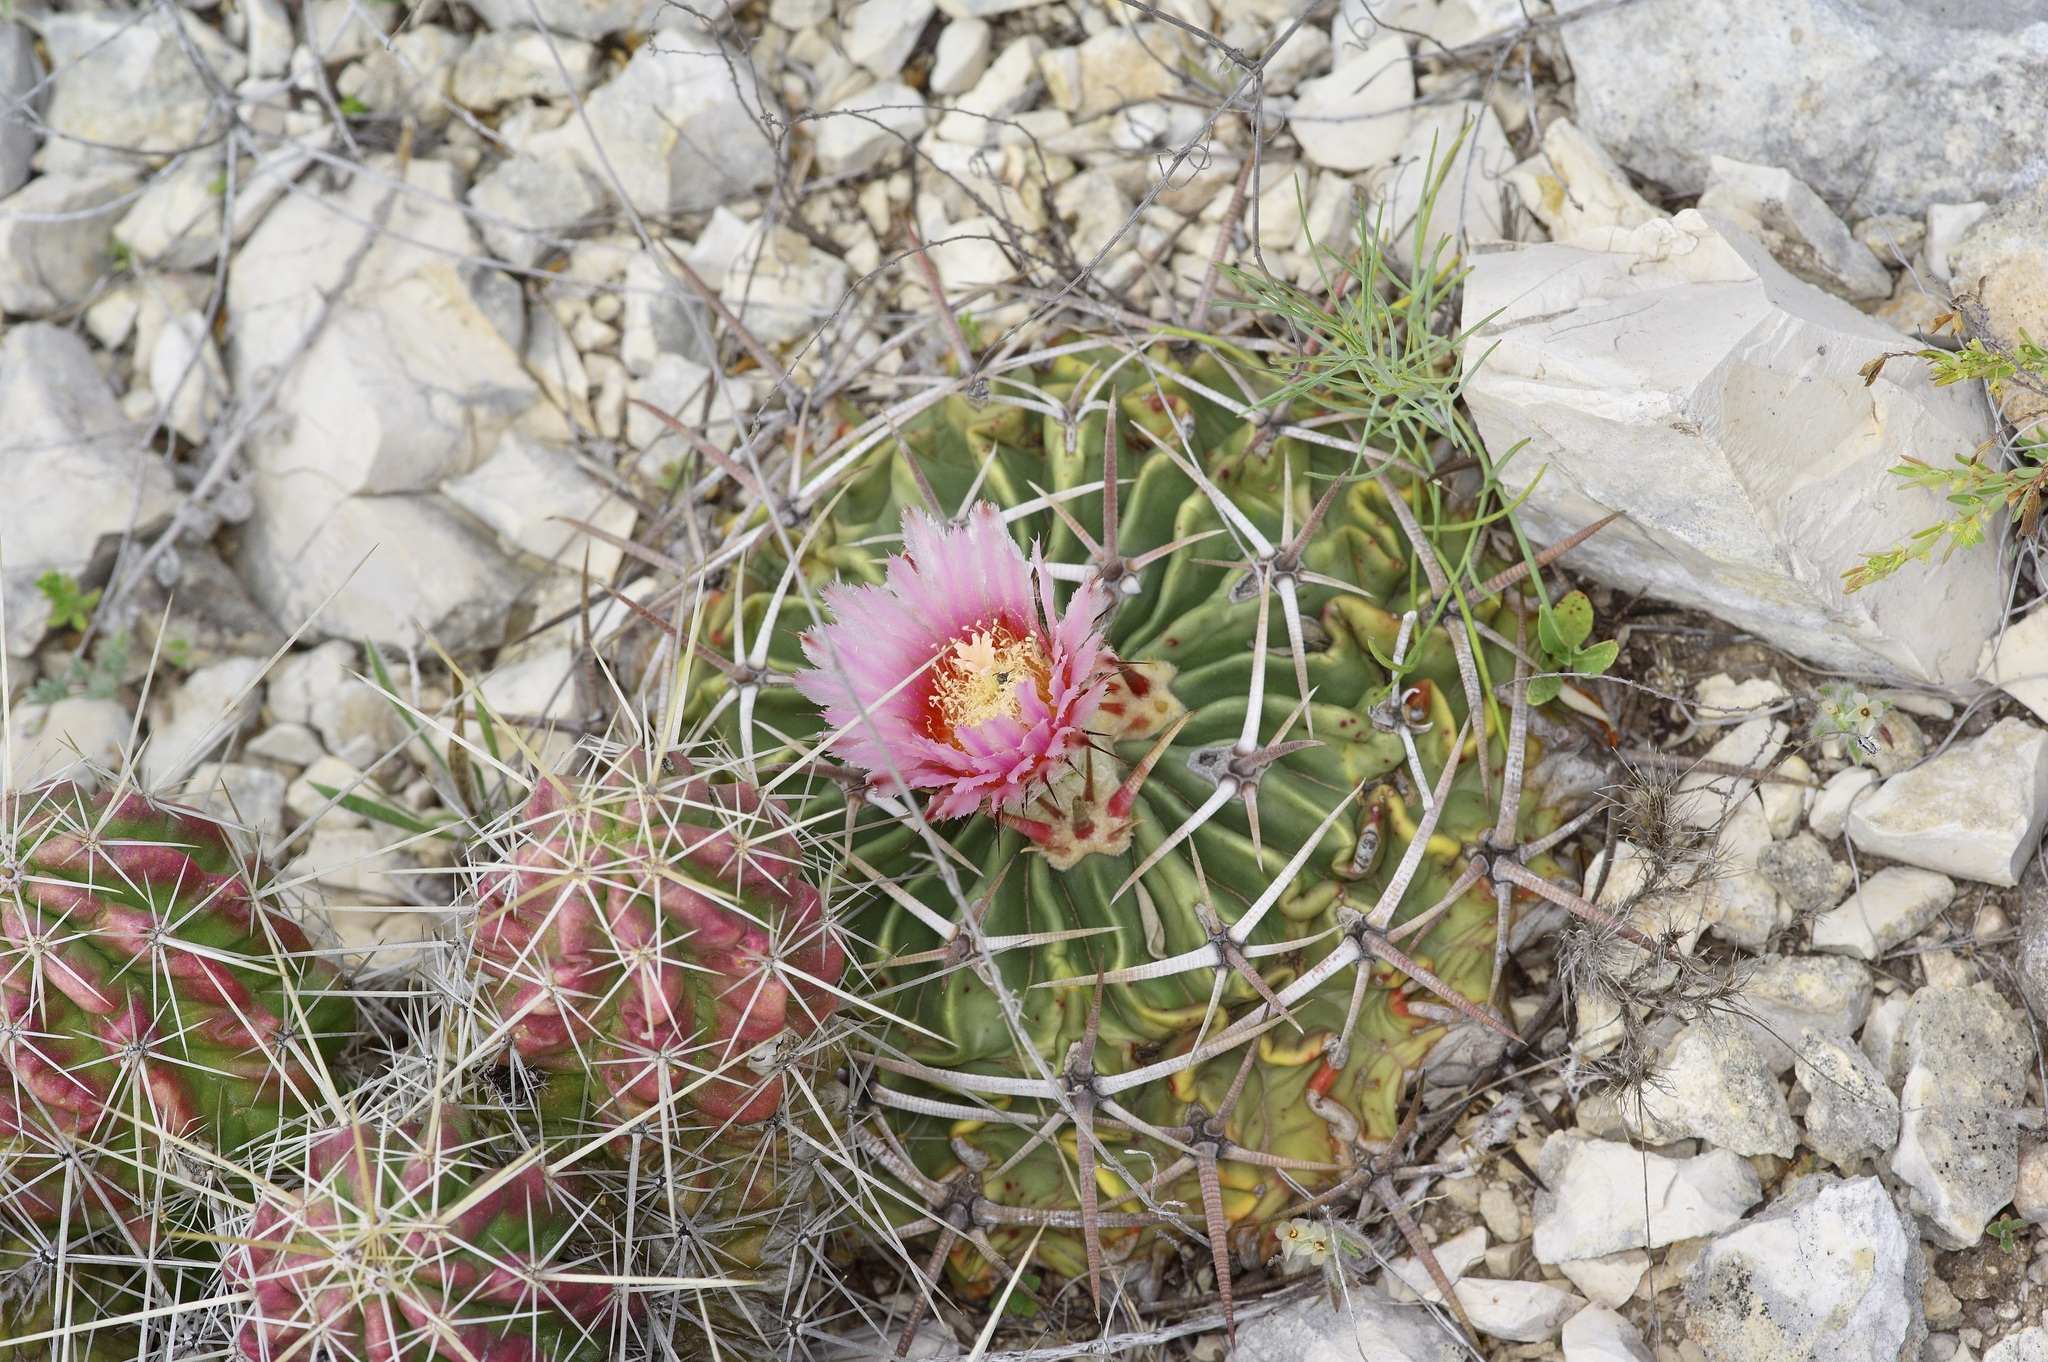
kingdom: Plantae
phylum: Tracheophyta
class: Magnoliopsida
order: Caryophyllales
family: Cactaceae
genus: Echinocactus
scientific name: Echinocactus texensis
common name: Devil's pincushion
